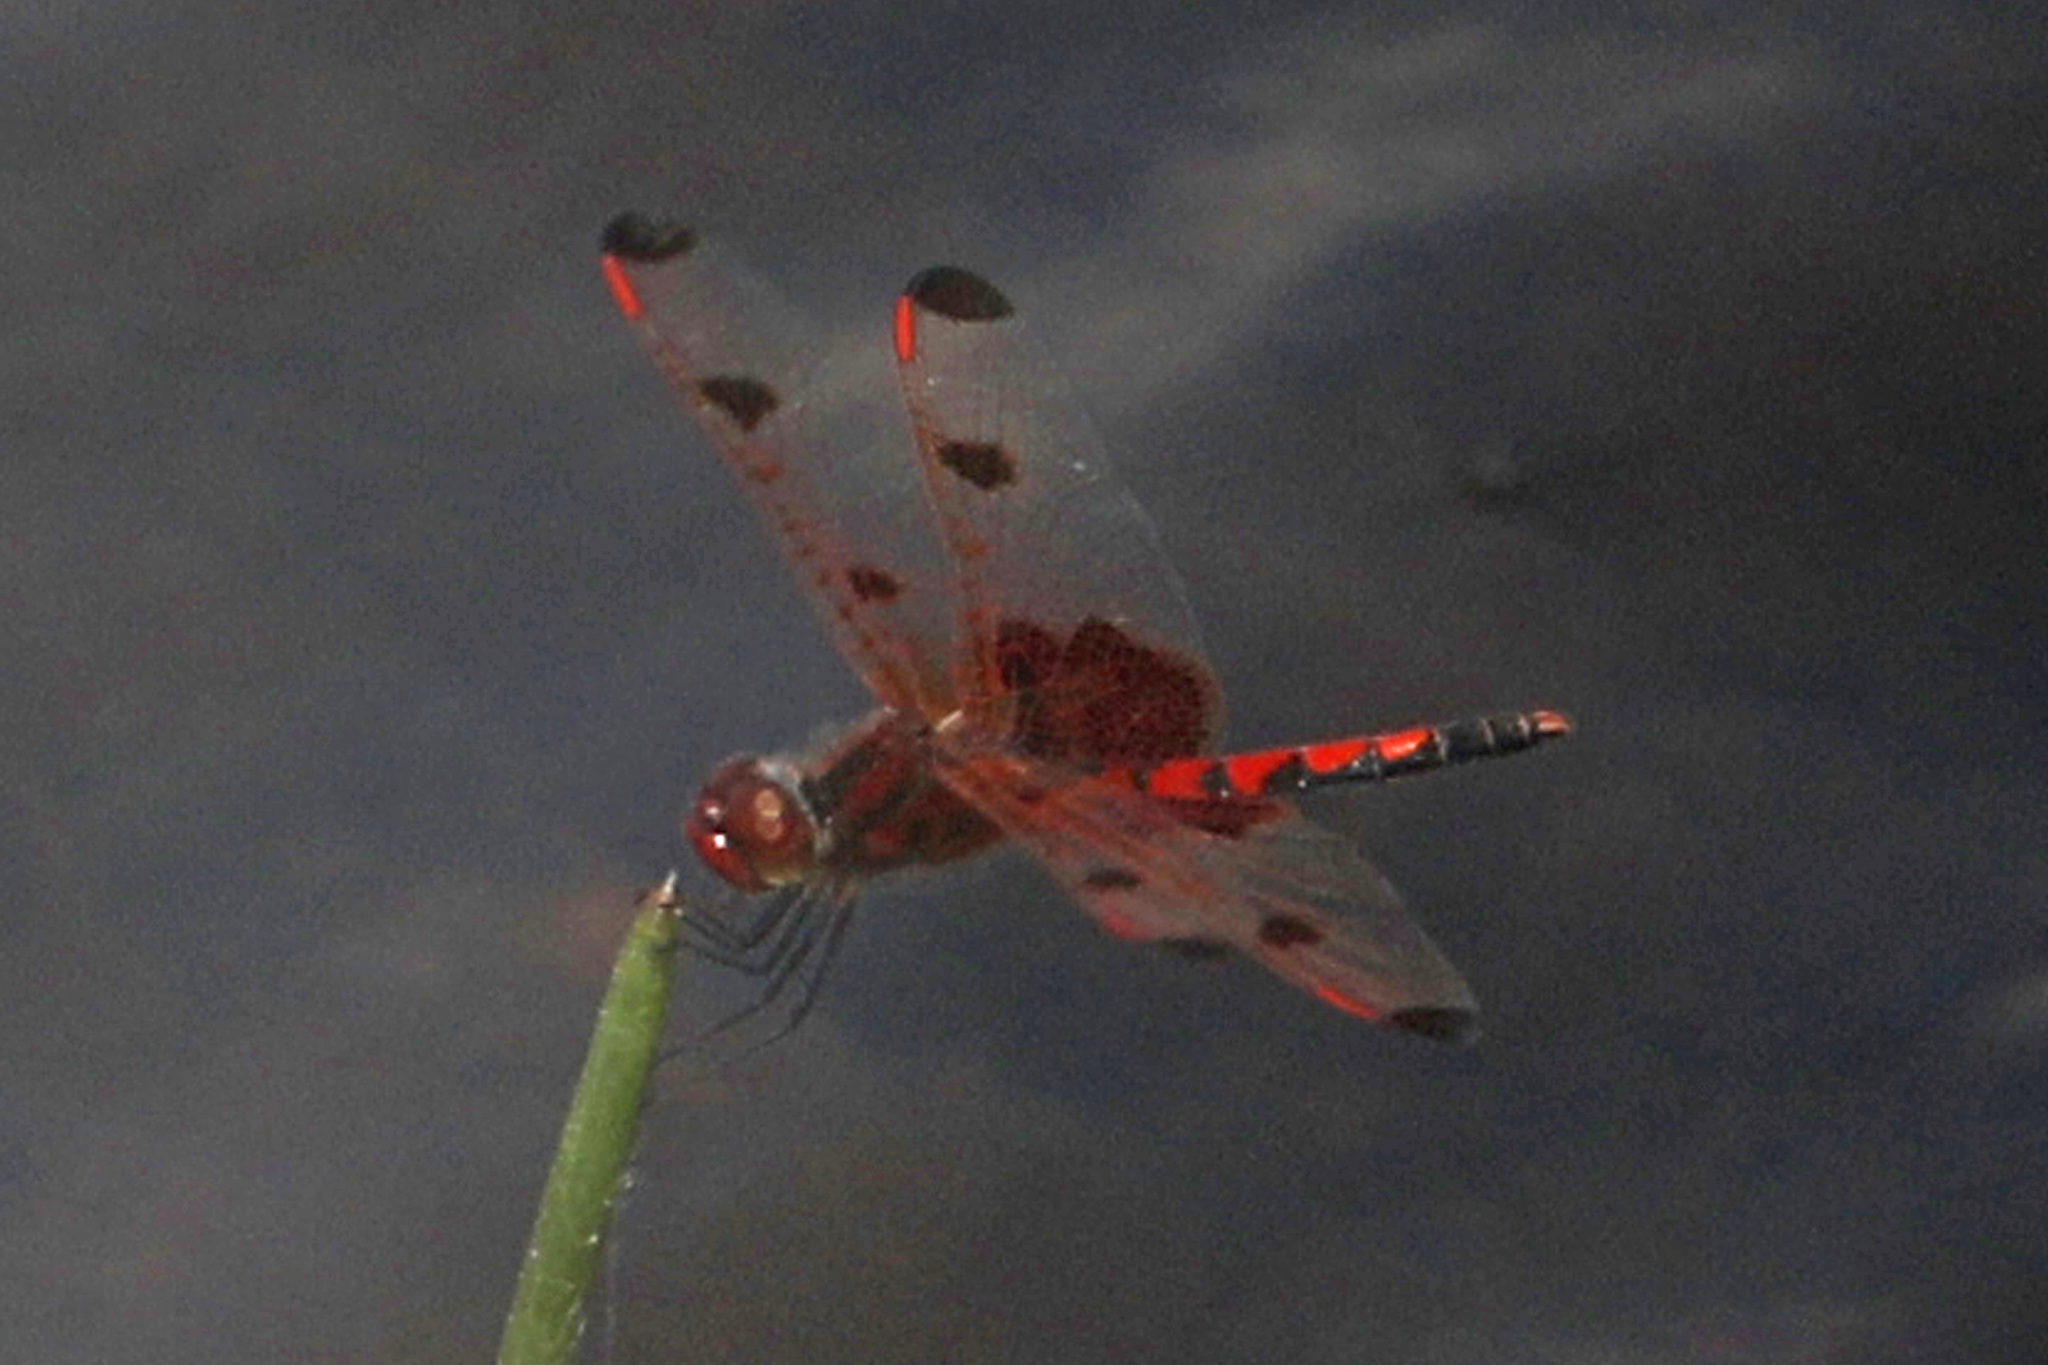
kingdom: Animalia
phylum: Arthropoda
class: Insecta
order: Odonata
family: Libellulidae
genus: Celithemis
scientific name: Celithemis elisa
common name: Calico pennant
